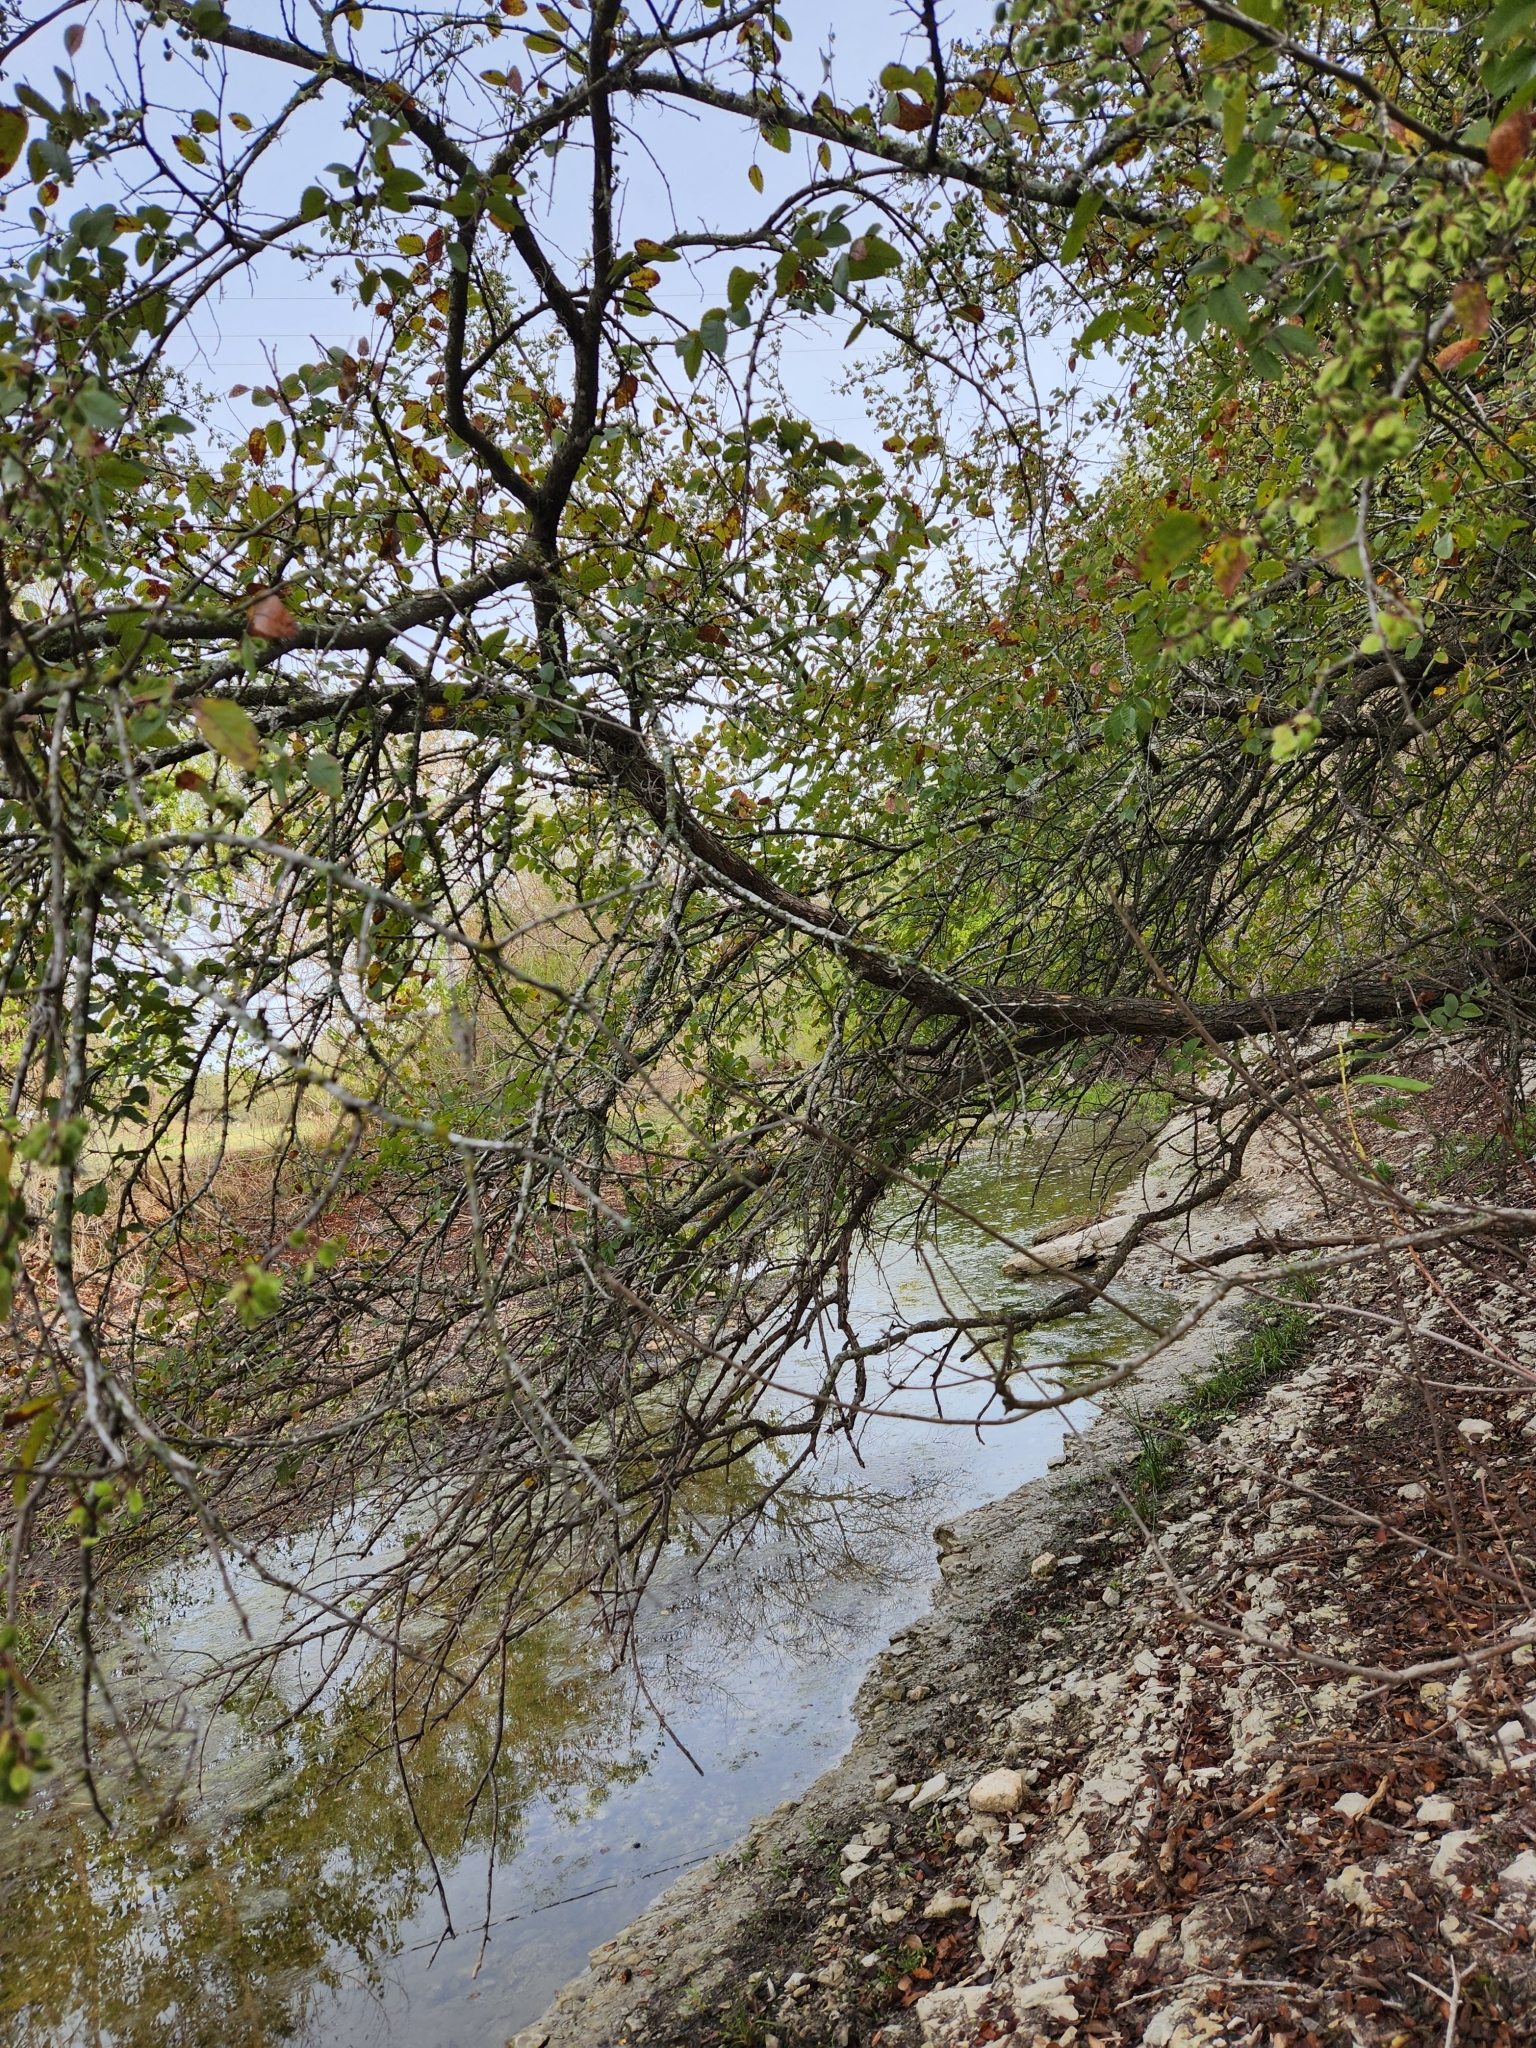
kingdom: Plantae
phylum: Tracheophyta
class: Magnoliopsida
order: Rosales
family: Ulmaceae
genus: Ulmus
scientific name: Ulmus crassifolia
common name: Basket elm
